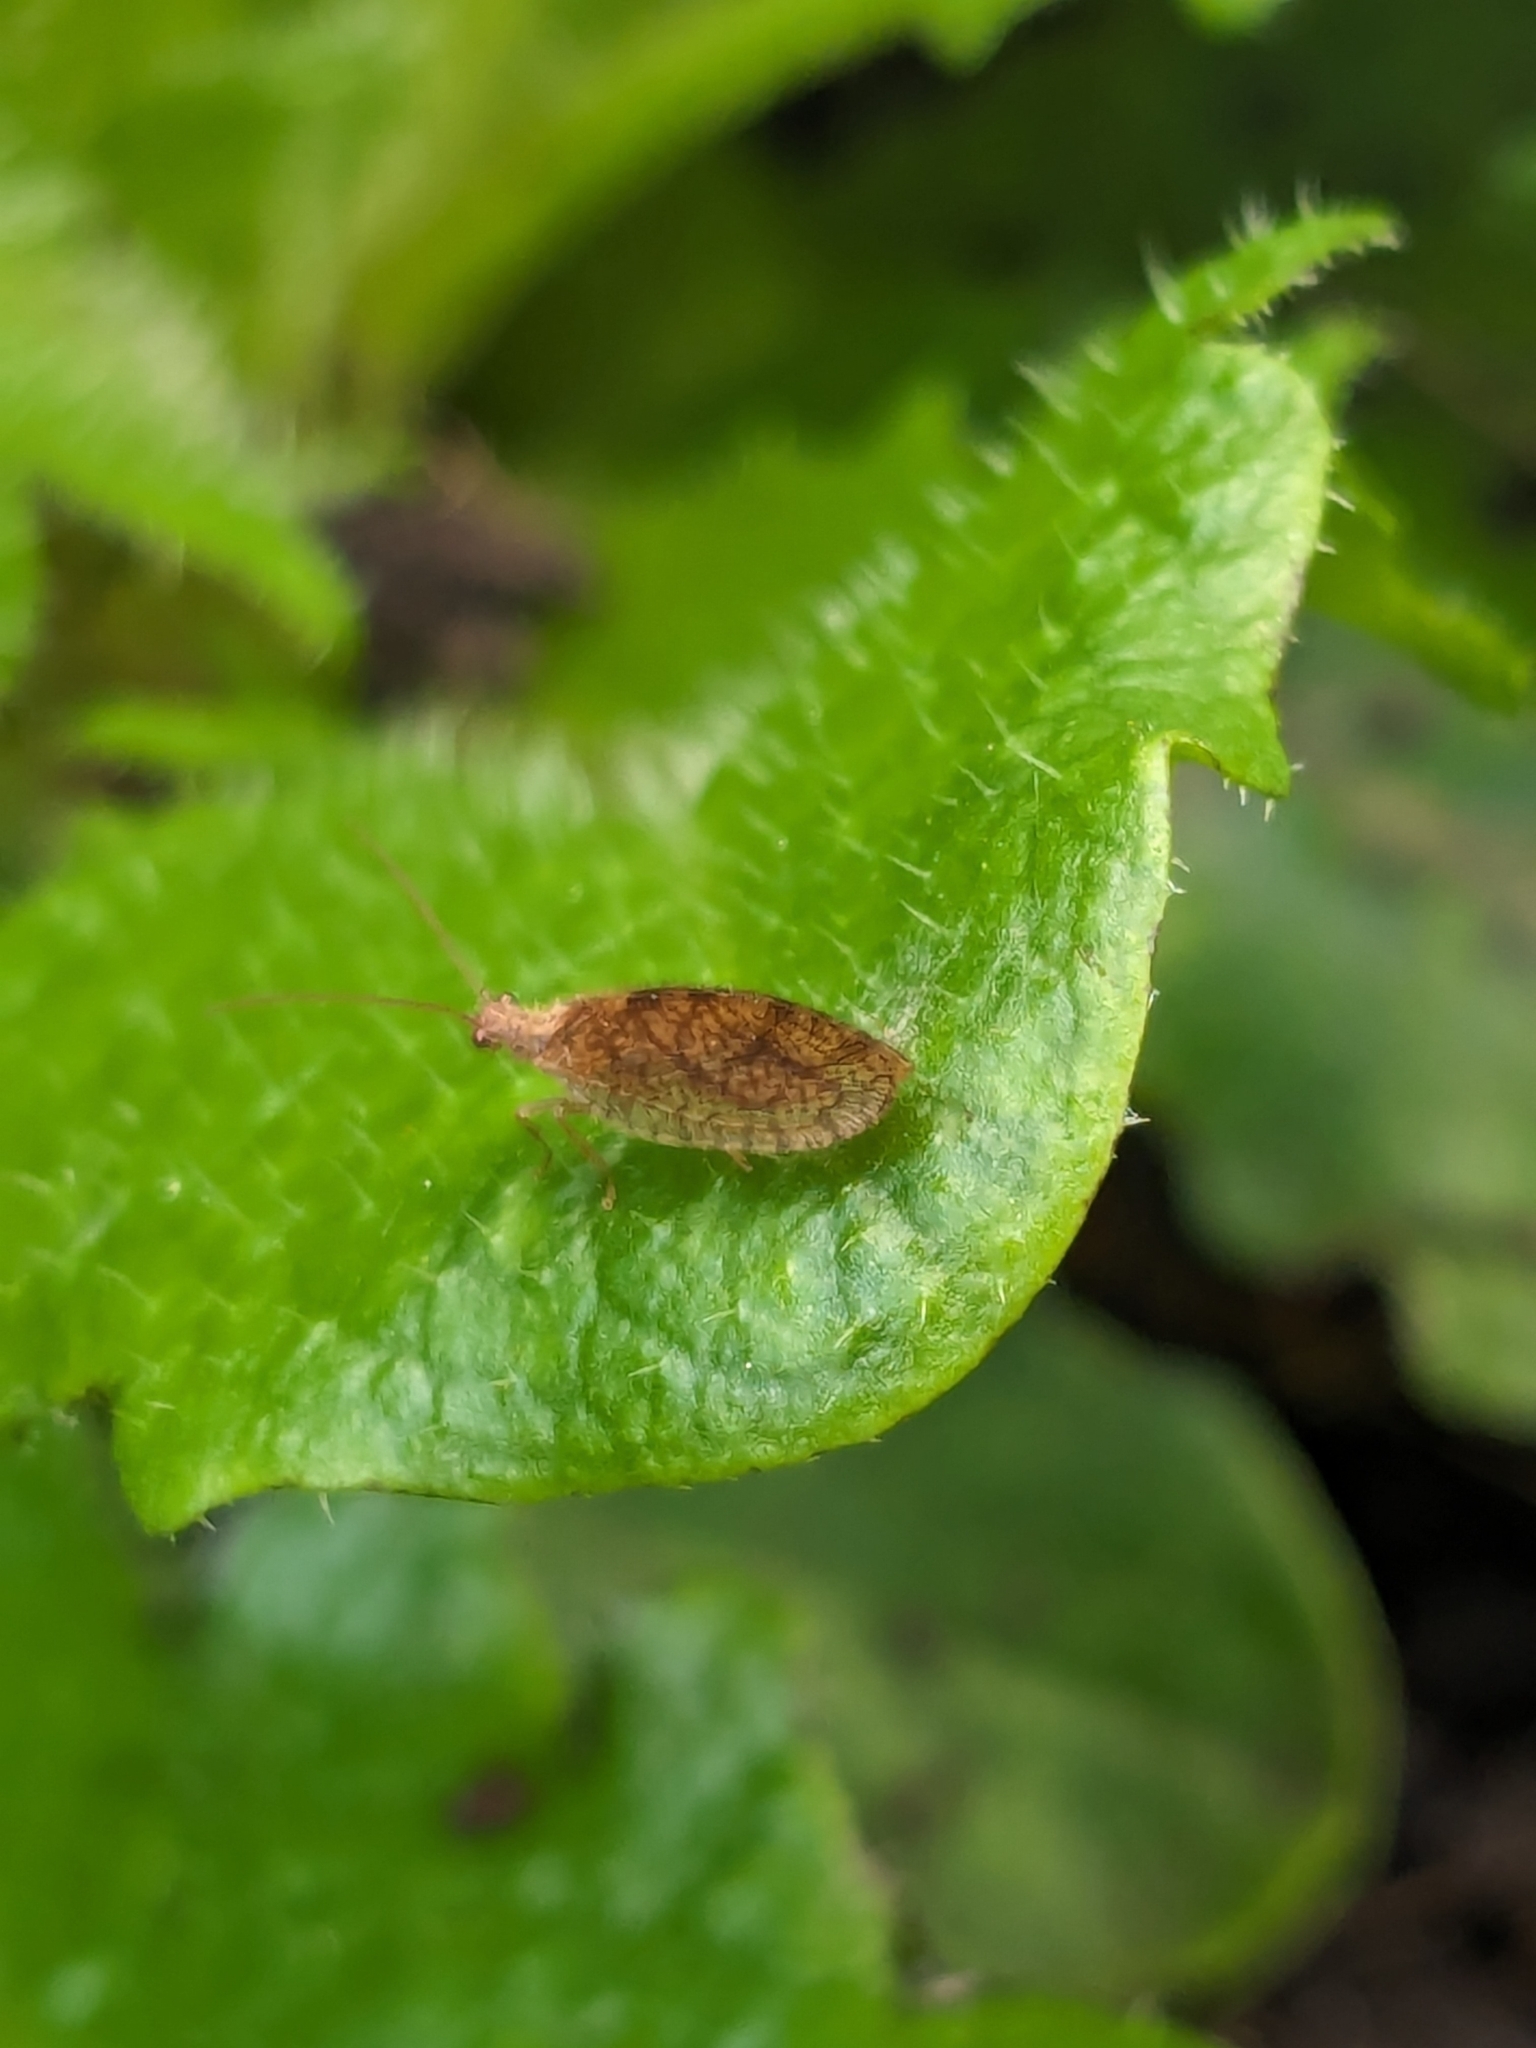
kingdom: Animalia
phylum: Arthropoda
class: Insecta
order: Neuroptera
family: Hemerobiidae
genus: Micromus
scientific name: Micromus angulatus
